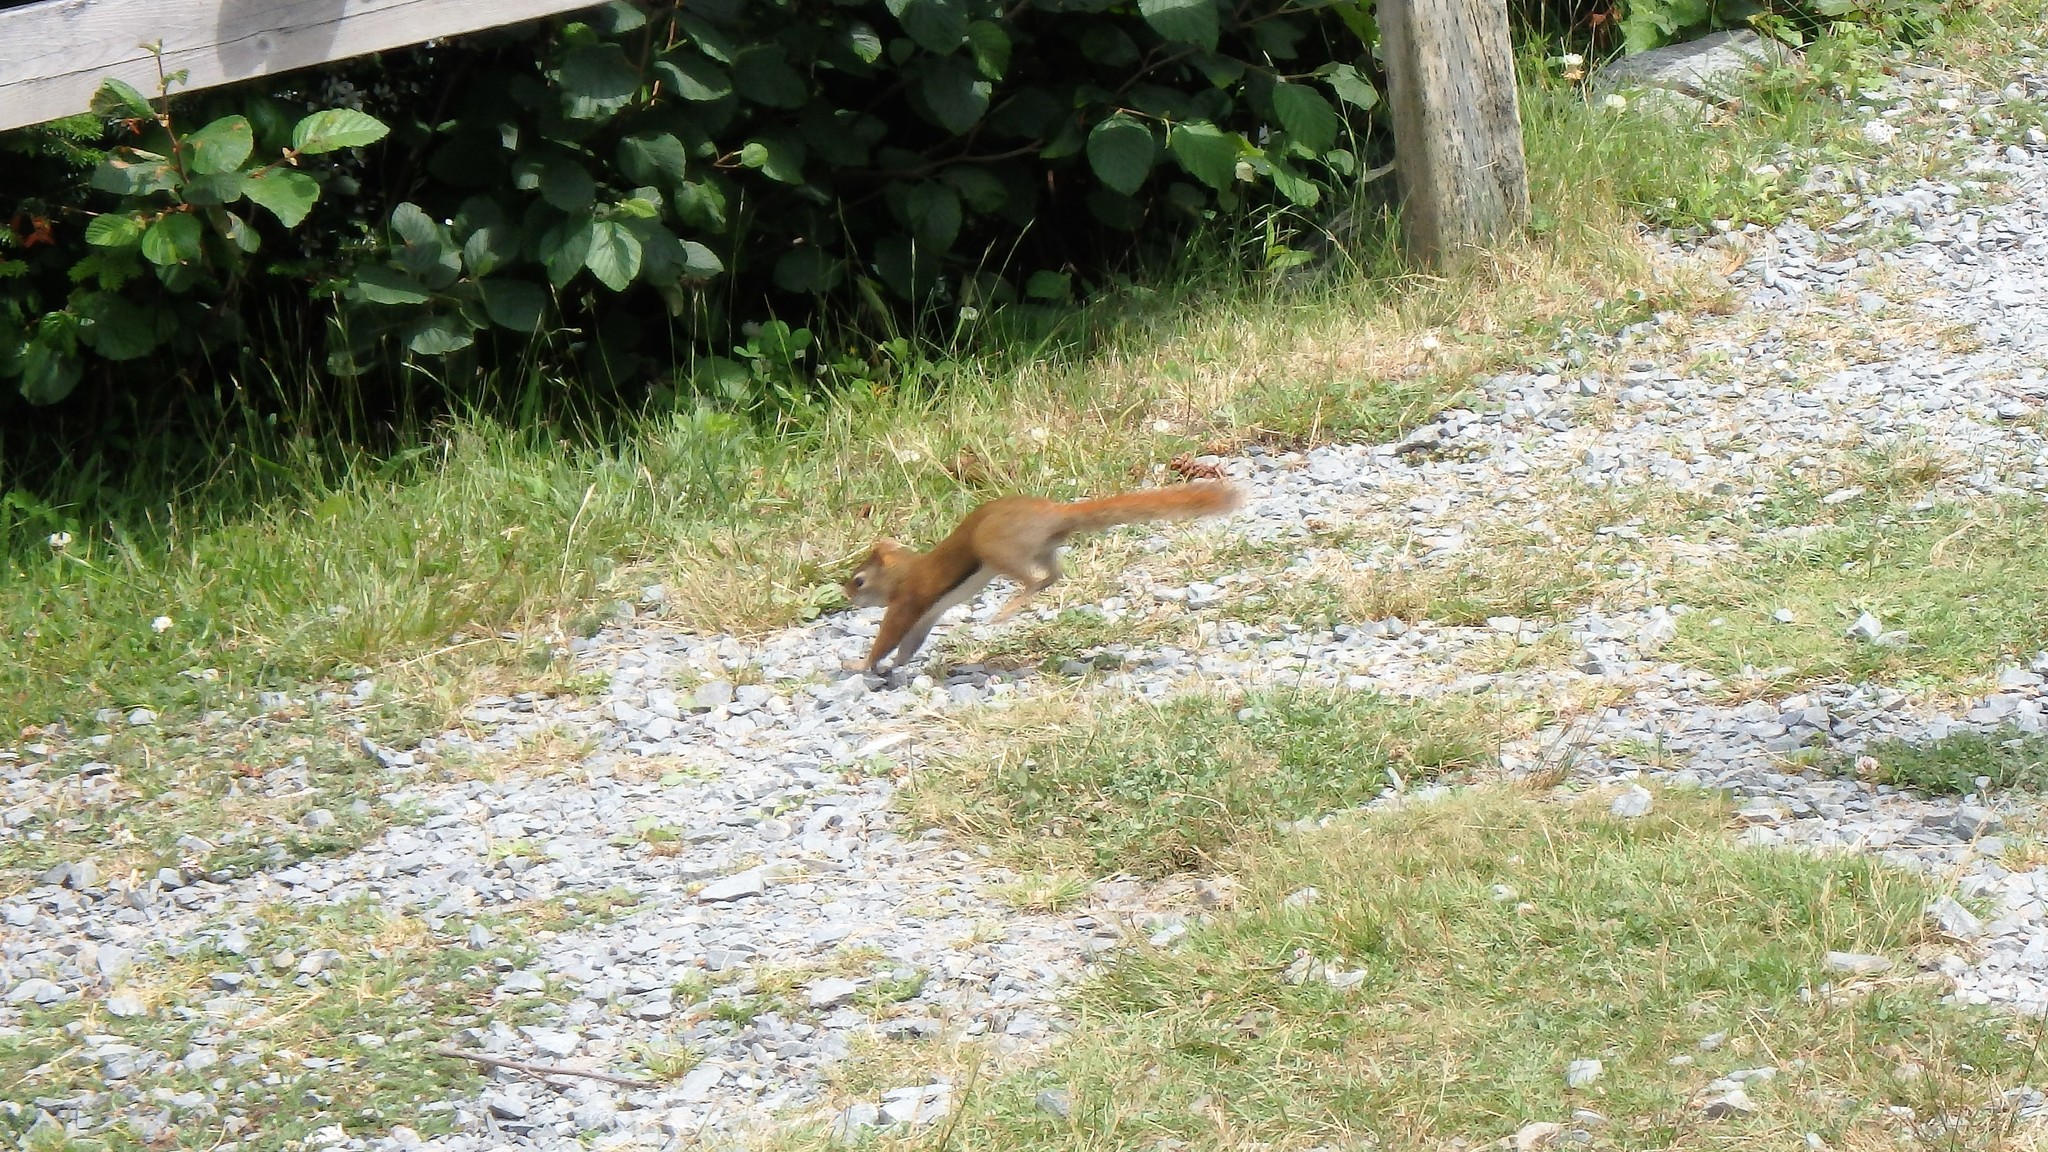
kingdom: Animalia
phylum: Chordata
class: Mammalia
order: Rodentia
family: Sciuridae
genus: Tamiasciurus
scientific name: Tamiasciurus hudsonicus
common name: Red squirrel
